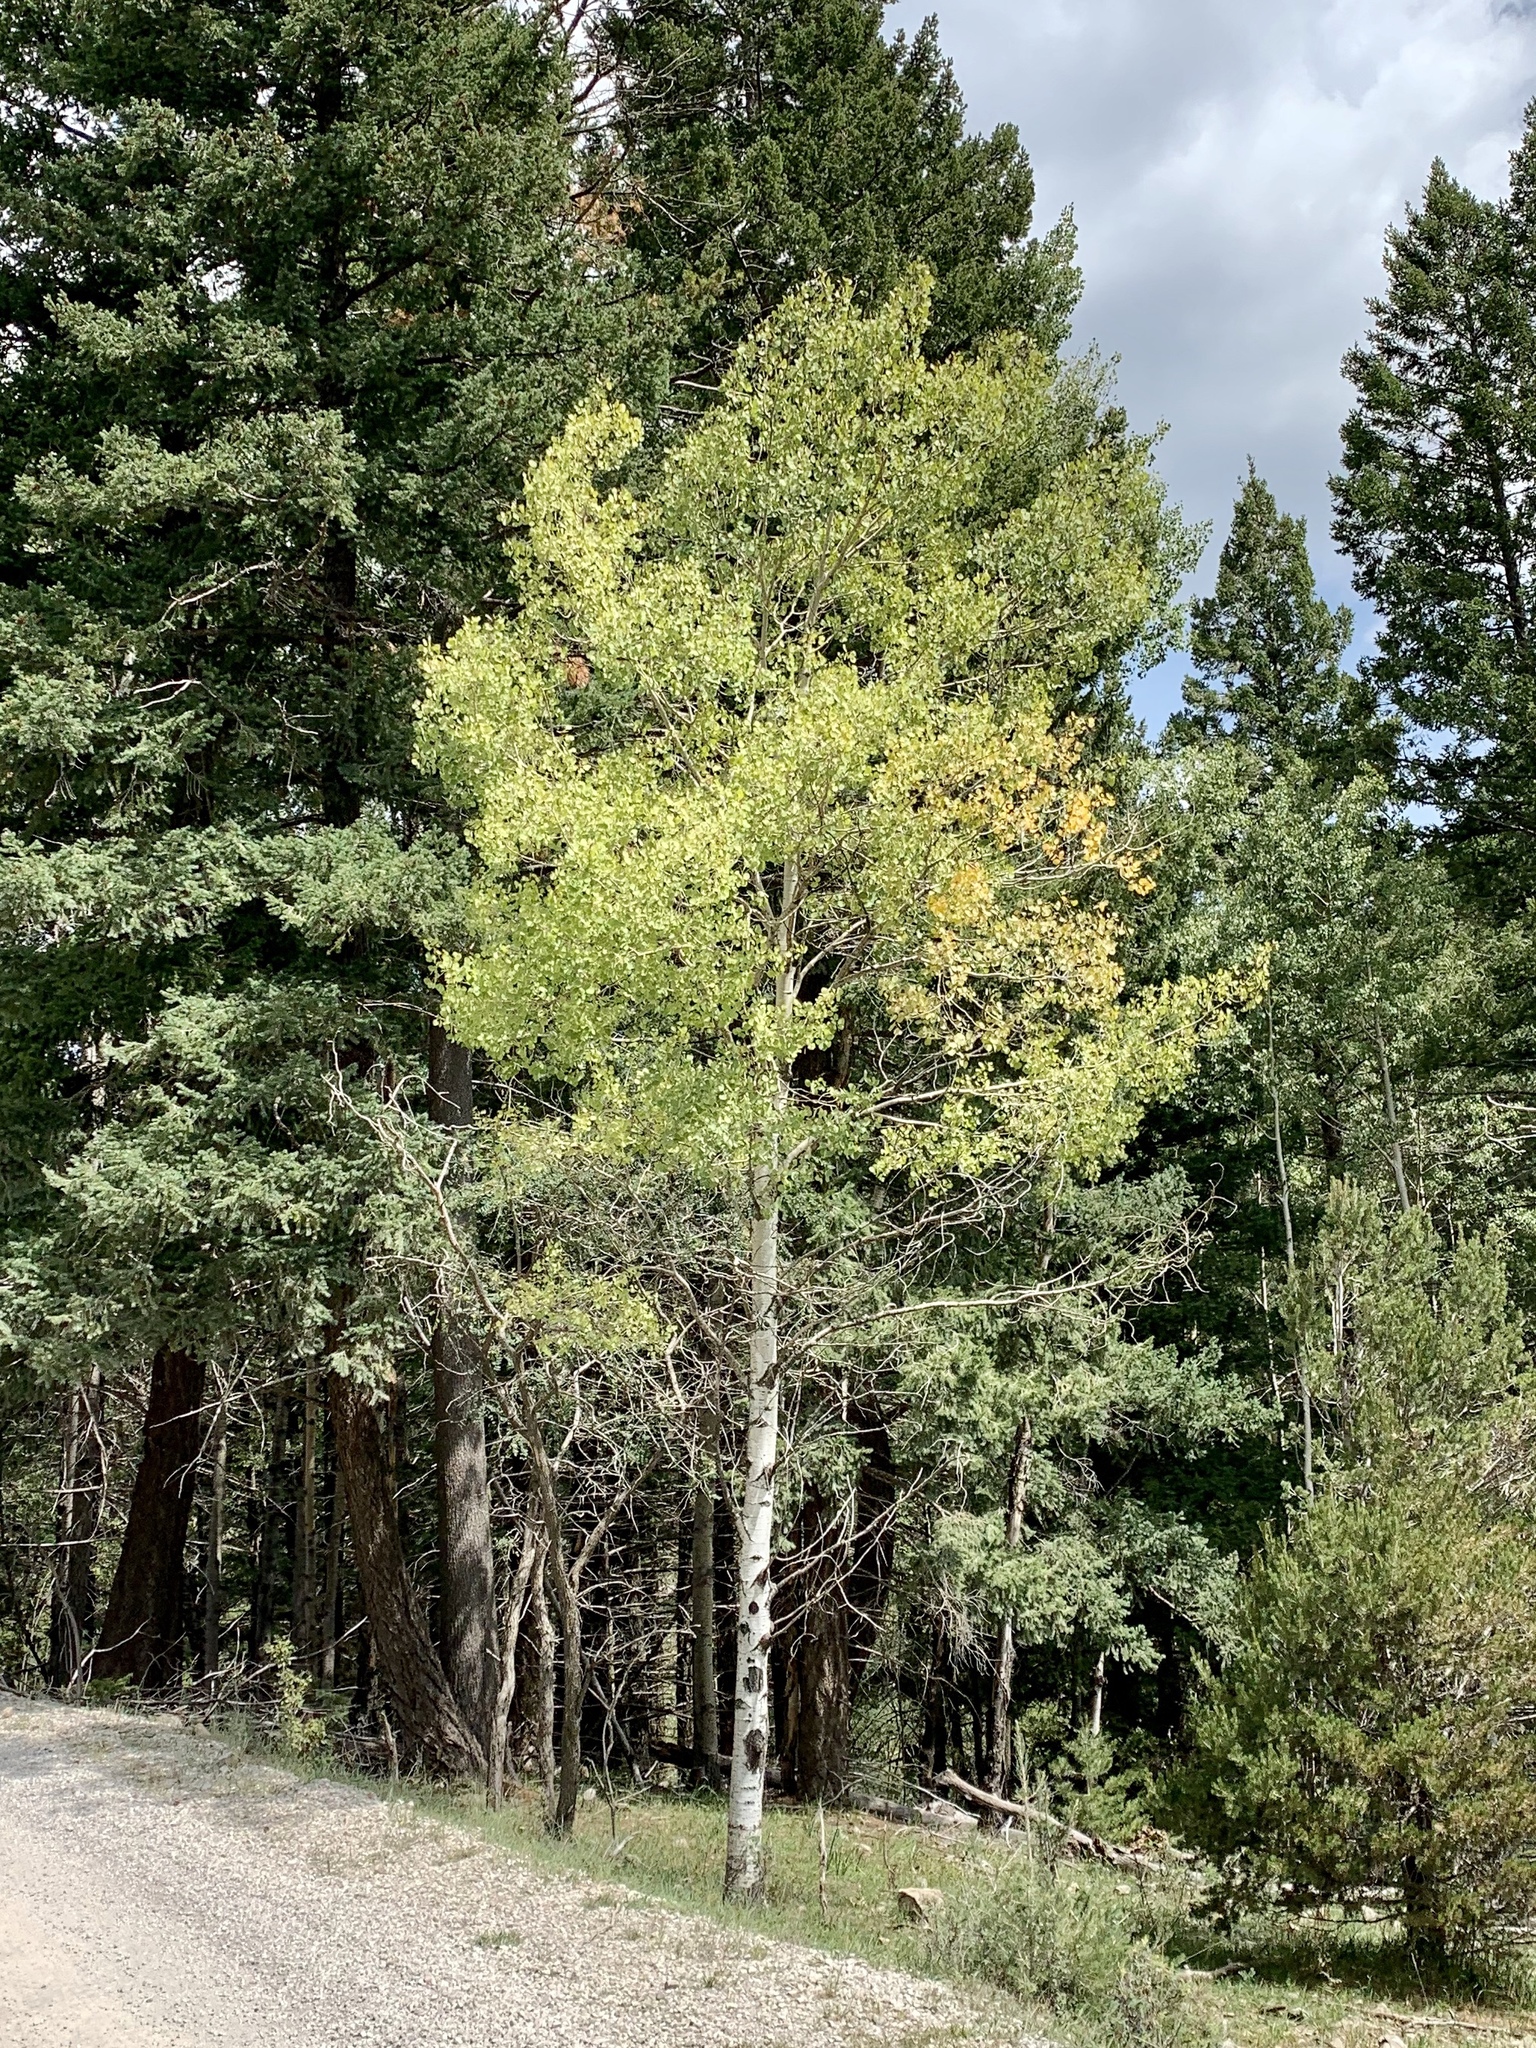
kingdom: Plantae
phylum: Tracheophyta
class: Magnoliopsida
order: Malpighiales
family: Salicaceae
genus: Populus
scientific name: Populus tremuloides
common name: Quaking aspen
